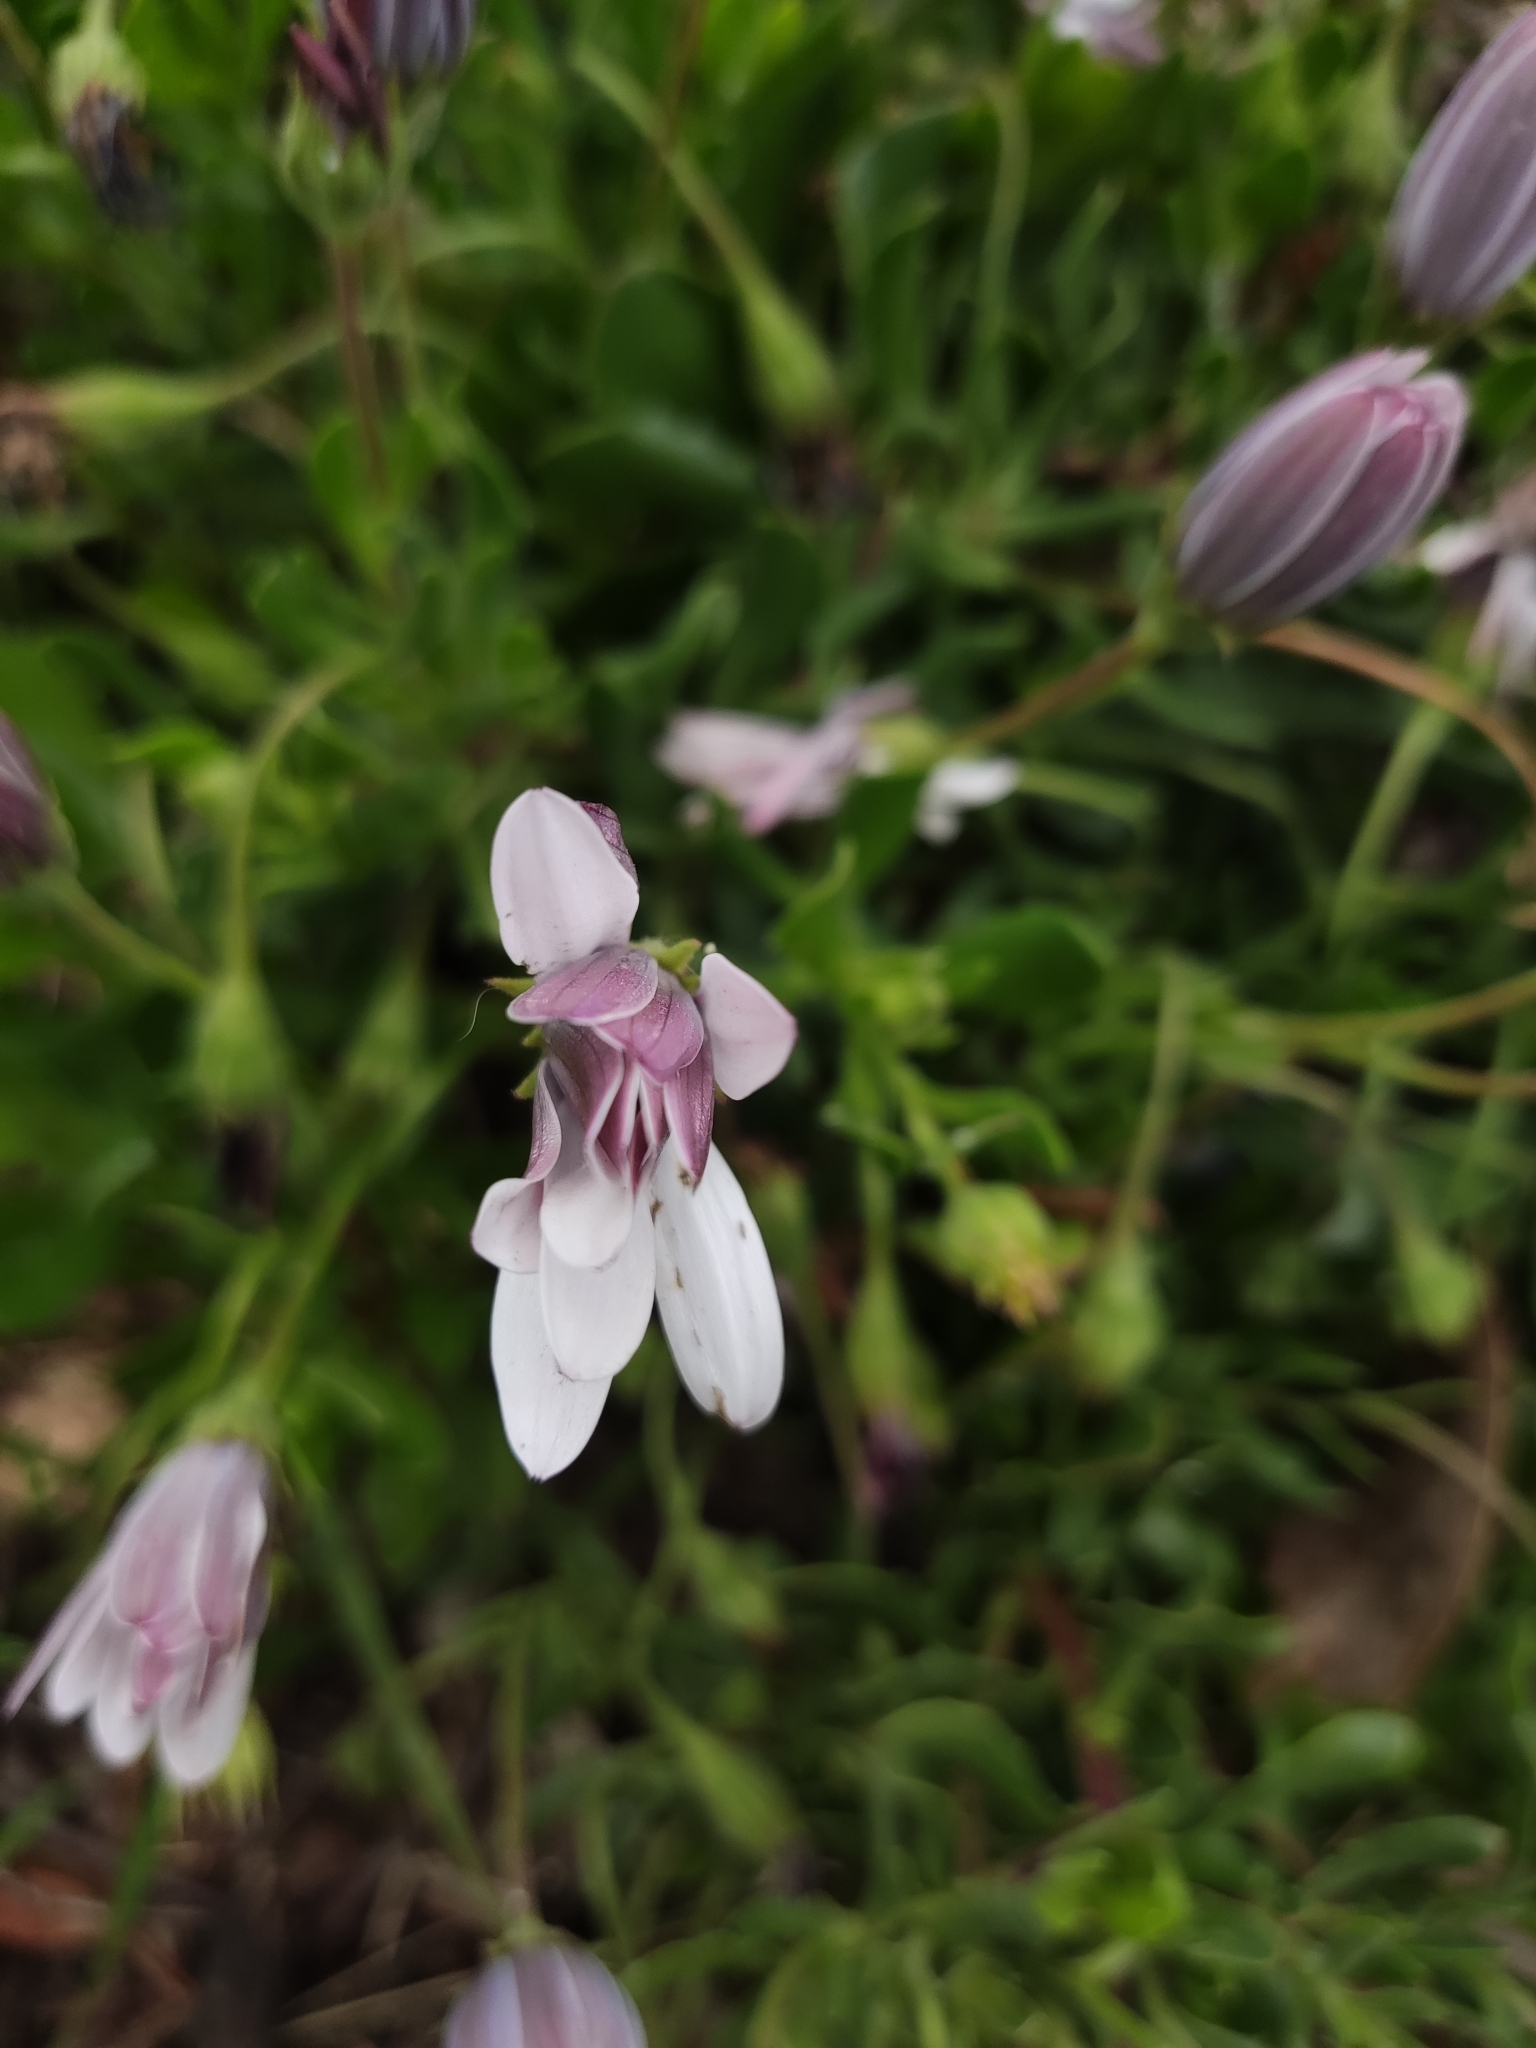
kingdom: Plantae
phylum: Tracheophyta
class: Magnoliopsida
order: Asterales
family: Asteraceae
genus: Dimorphotheca
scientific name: Dimorphotheca ecklonis
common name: Vanstaden's river daisy
